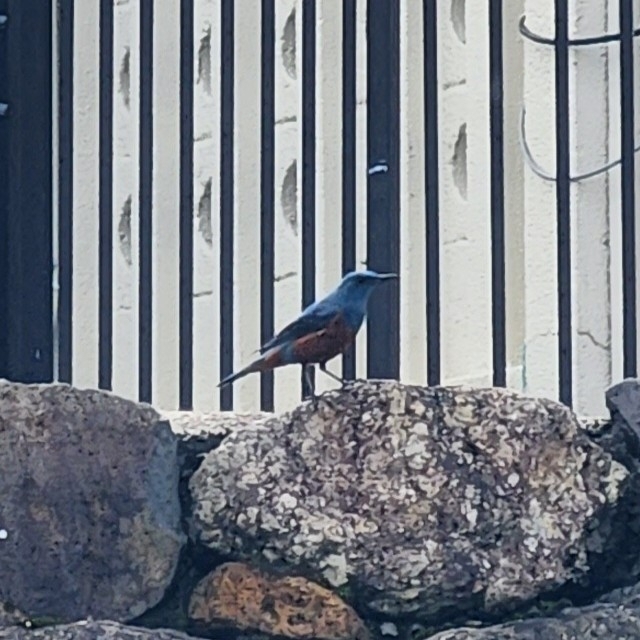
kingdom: Animalia
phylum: Chordata
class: Aves
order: Passeriformes
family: Muscicapidae
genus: Monticola
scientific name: Monticola solitarius
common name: Blue rock thrush
